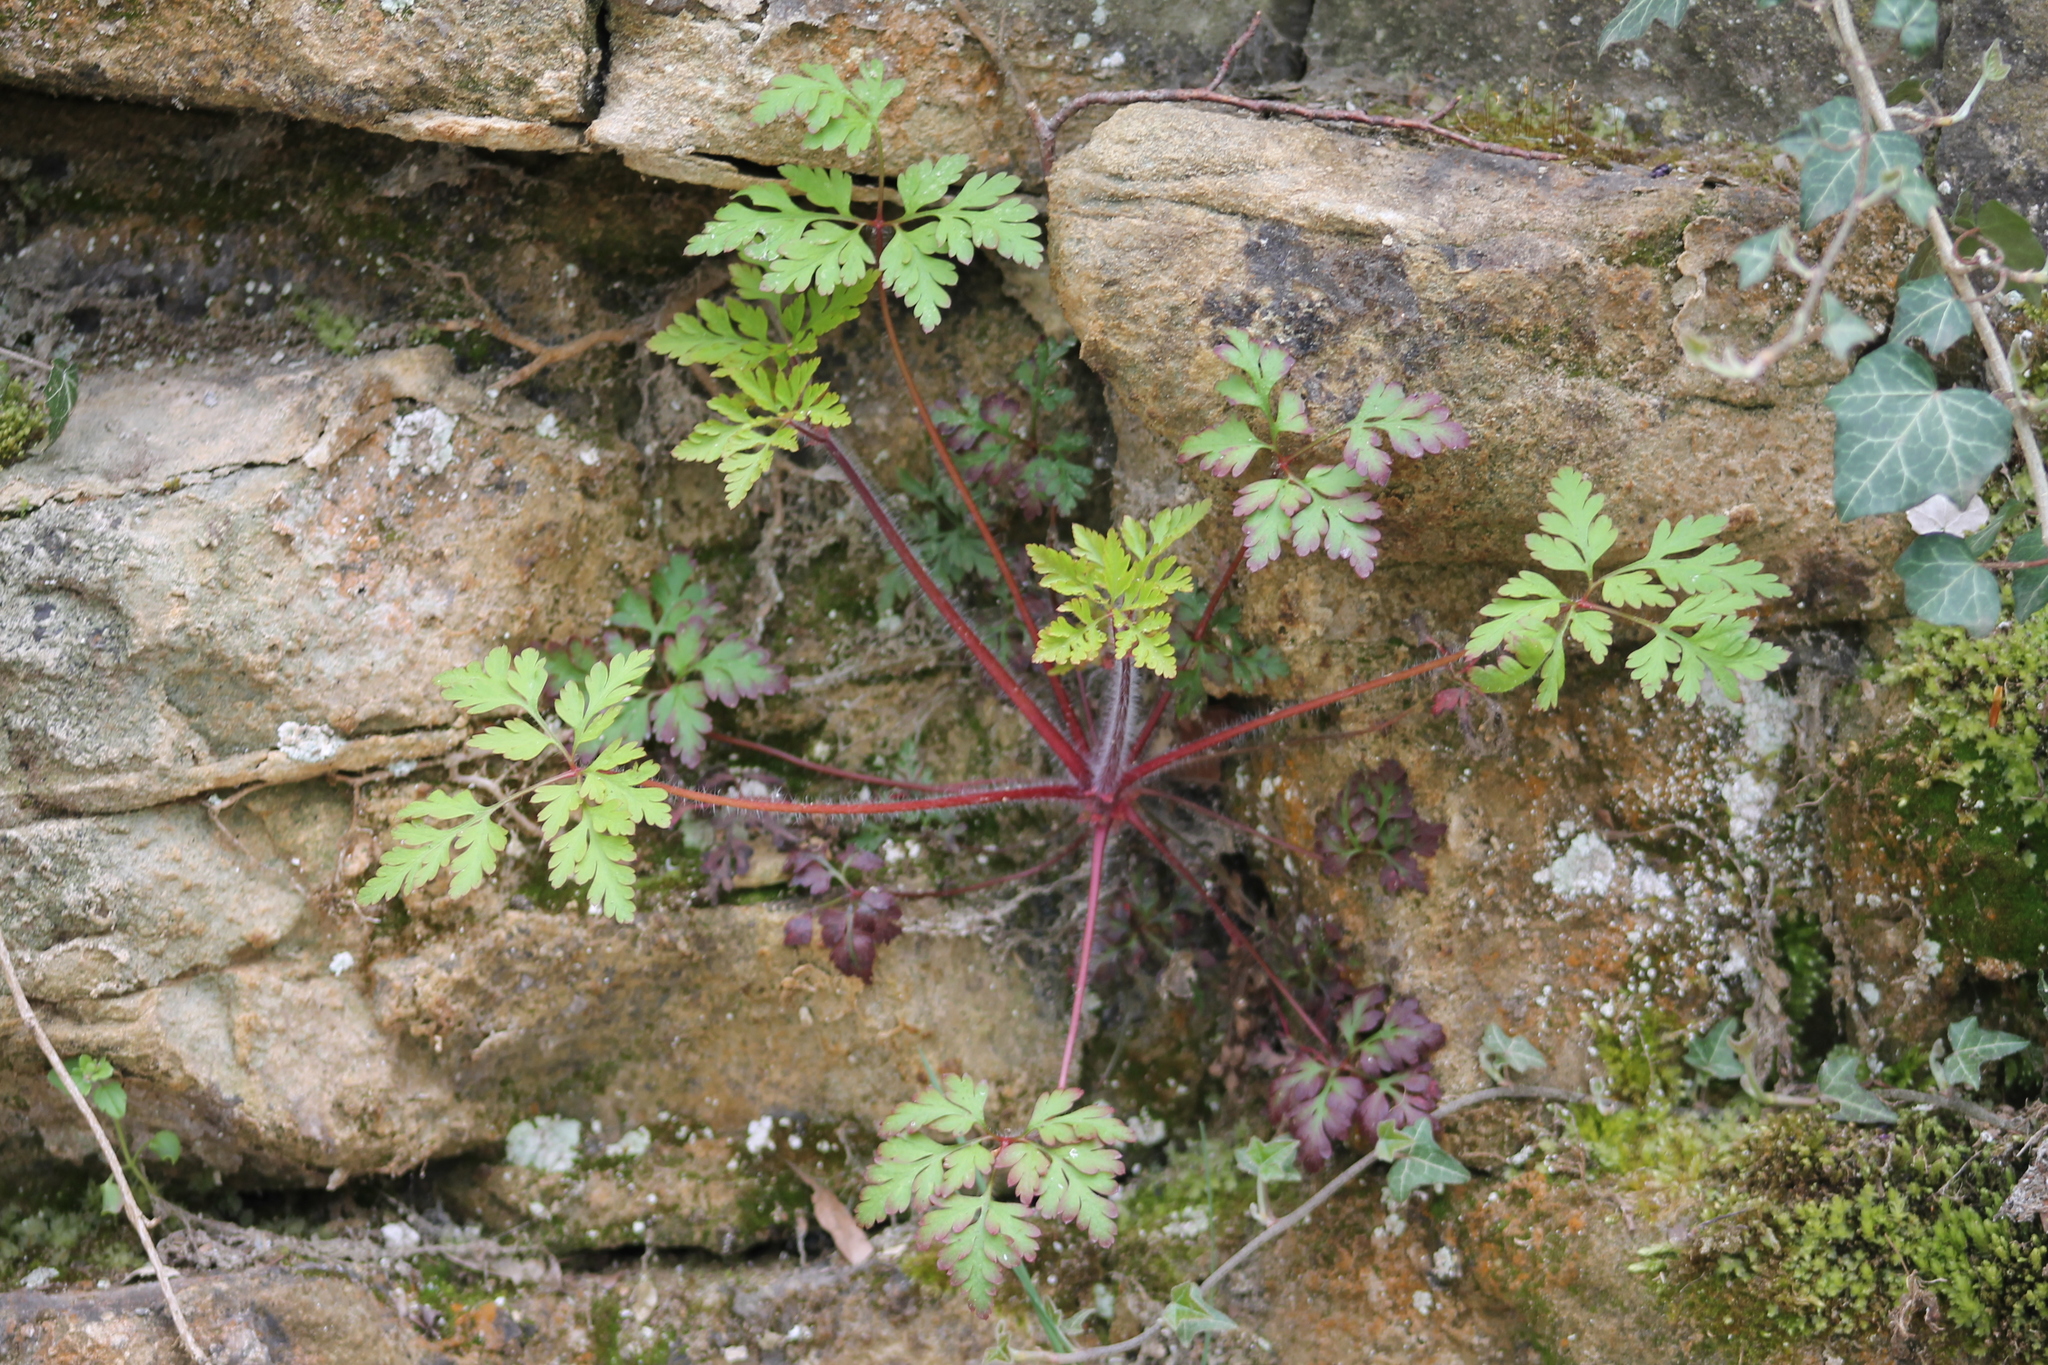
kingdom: Plantae
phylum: Tracheophyta
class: Magnoliopsida
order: Geraniales
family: Geraniaceae
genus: Geranium
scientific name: Geranium robertianum
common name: Herb-robert
